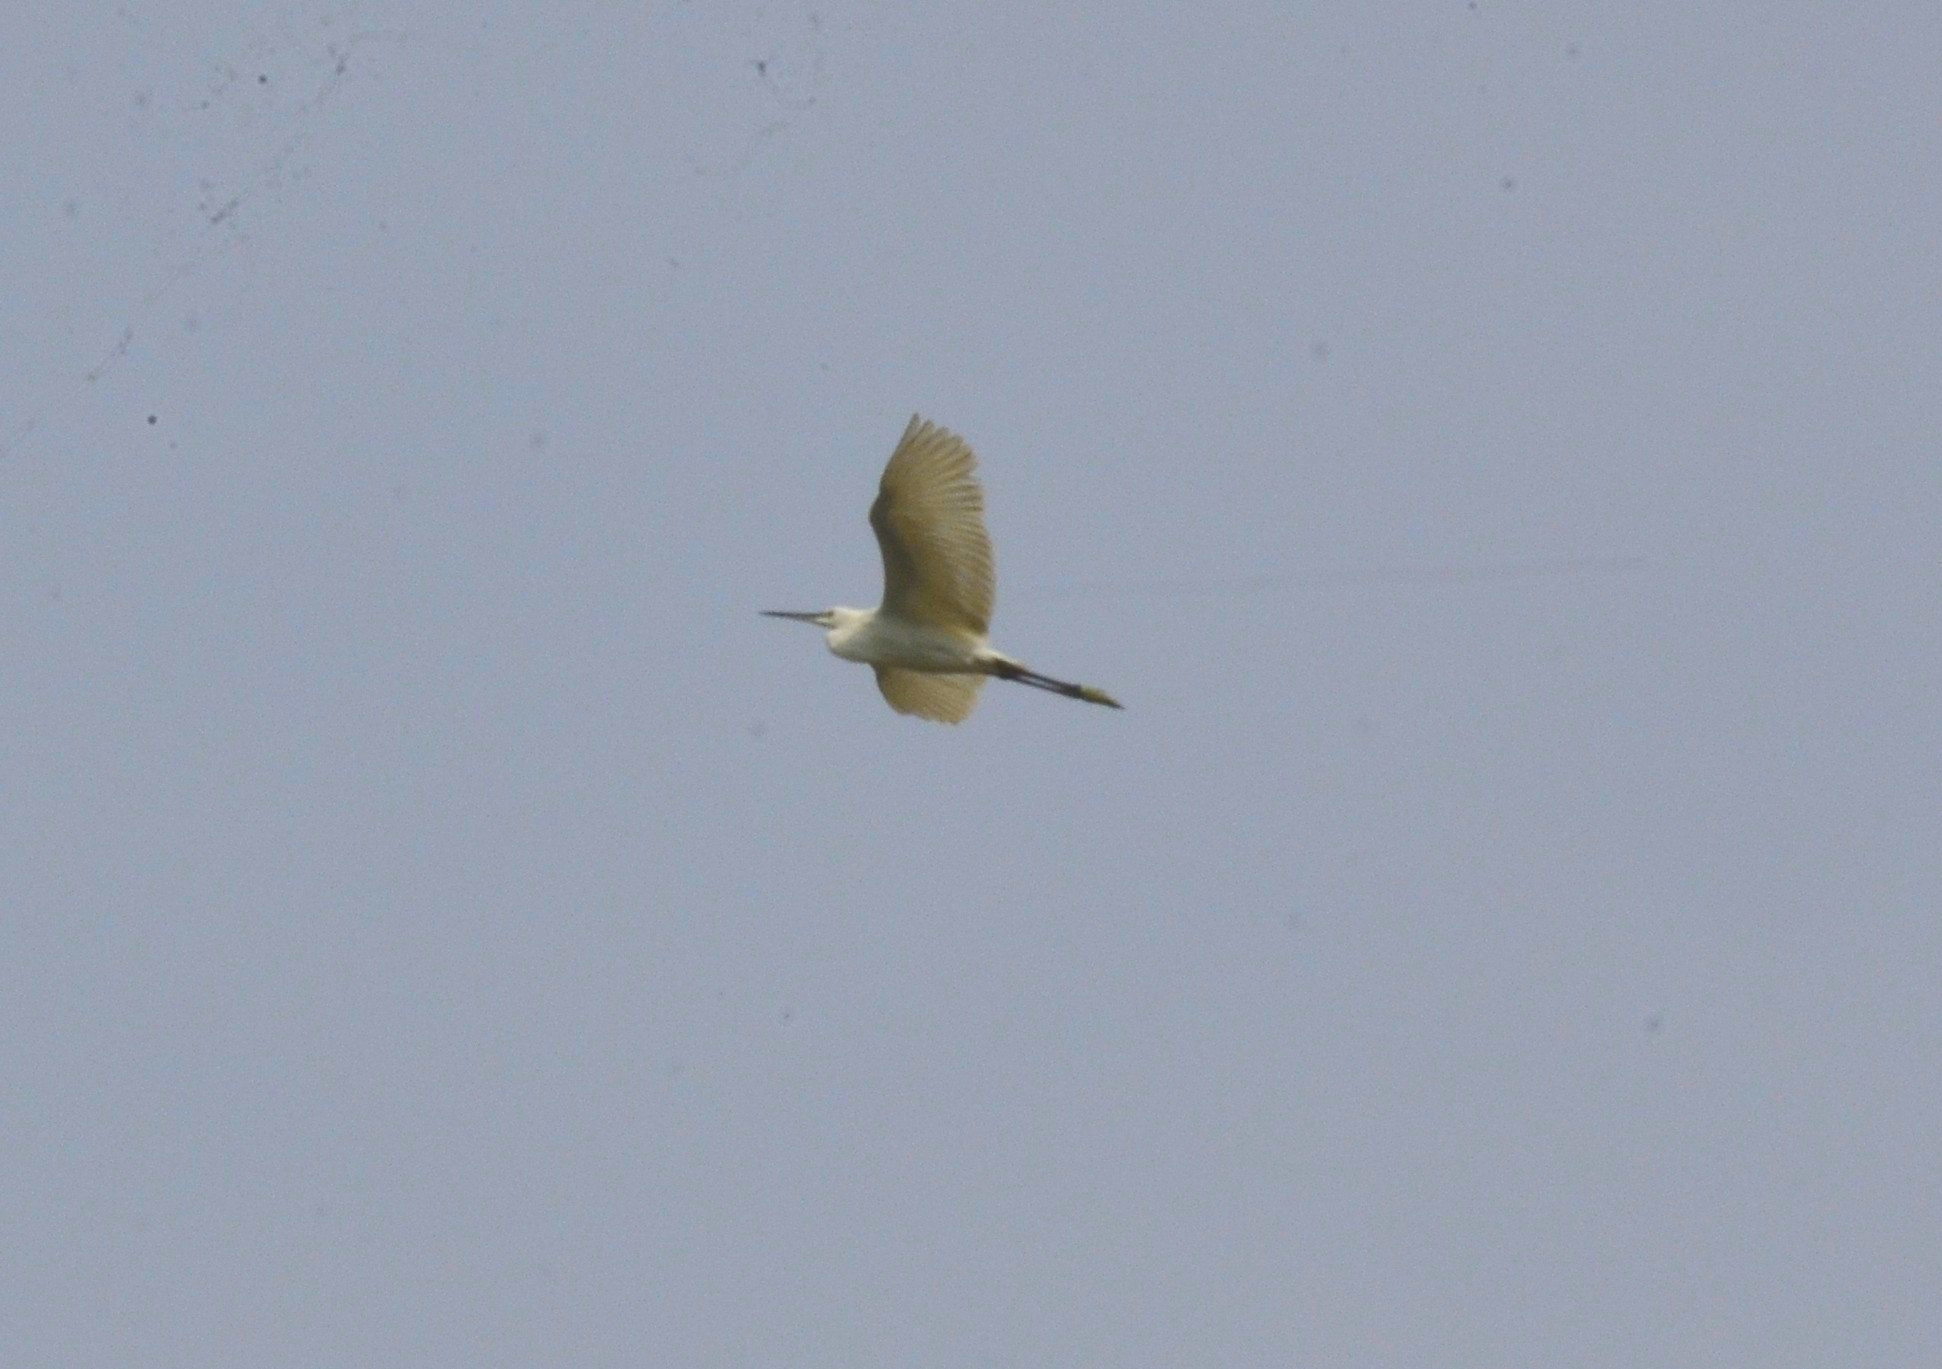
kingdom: Animalia
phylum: Chordata
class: Aves
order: Pelecaniformes
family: Ardeidae
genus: Egretta
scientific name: Egretta garzetta
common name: Little egret
